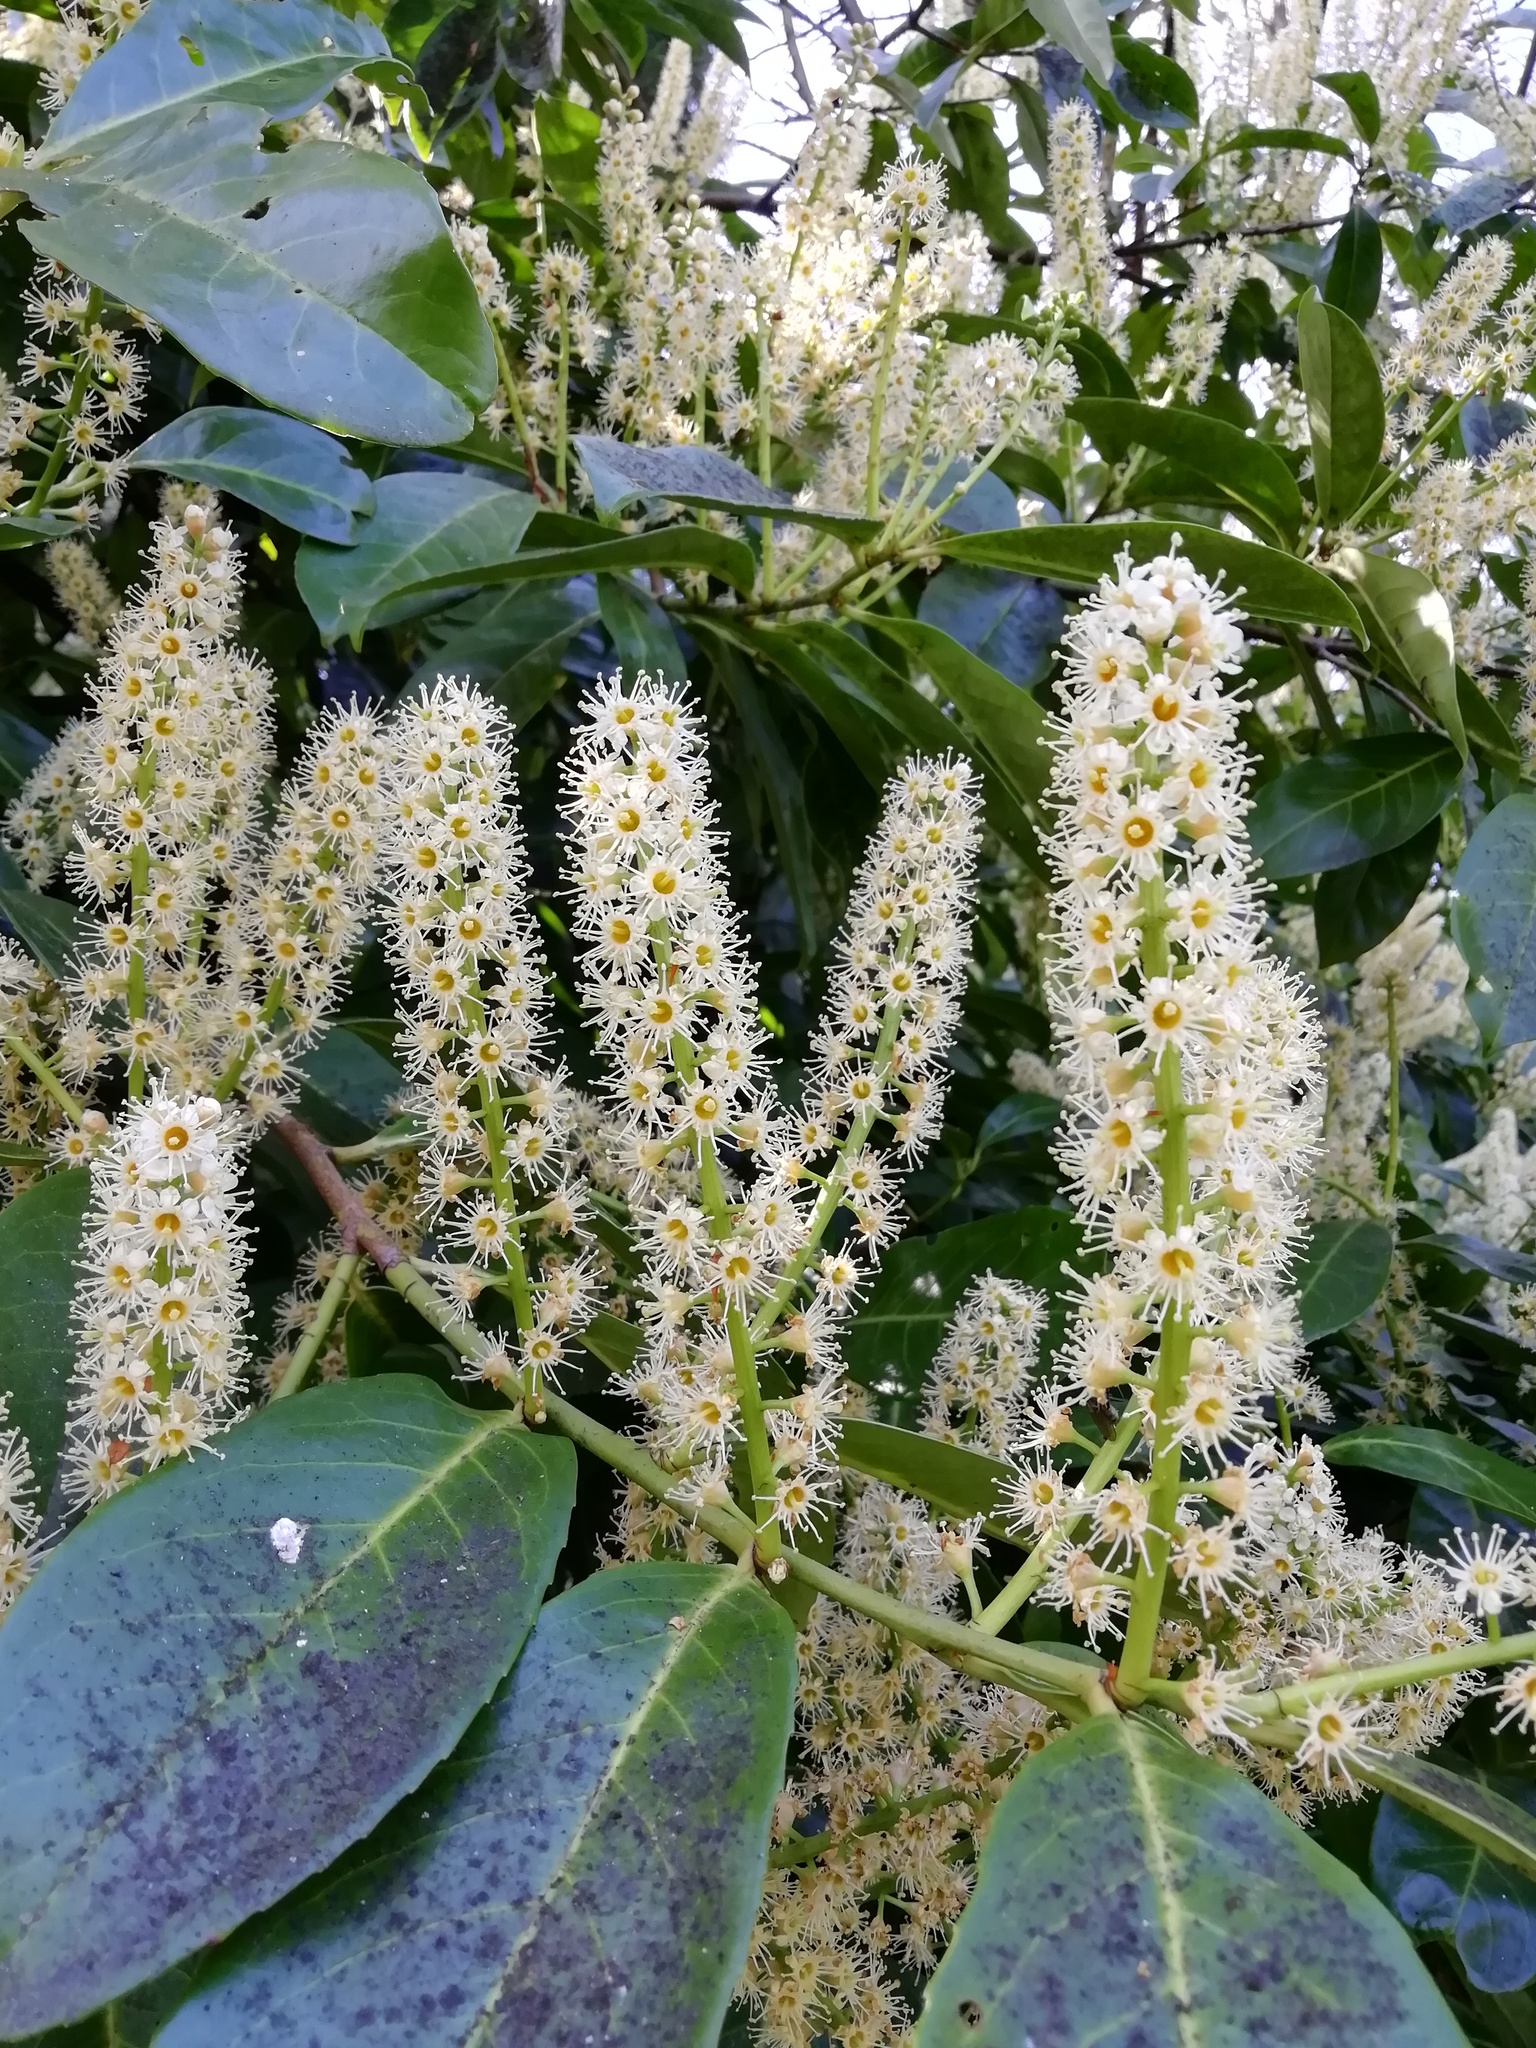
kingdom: Plantae
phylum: Tracheophyta
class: Magnoliopsida
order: Rosales
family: Rosaceae
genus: Prunus
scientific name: Prunus laurocerasus
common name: Cherry laurel
